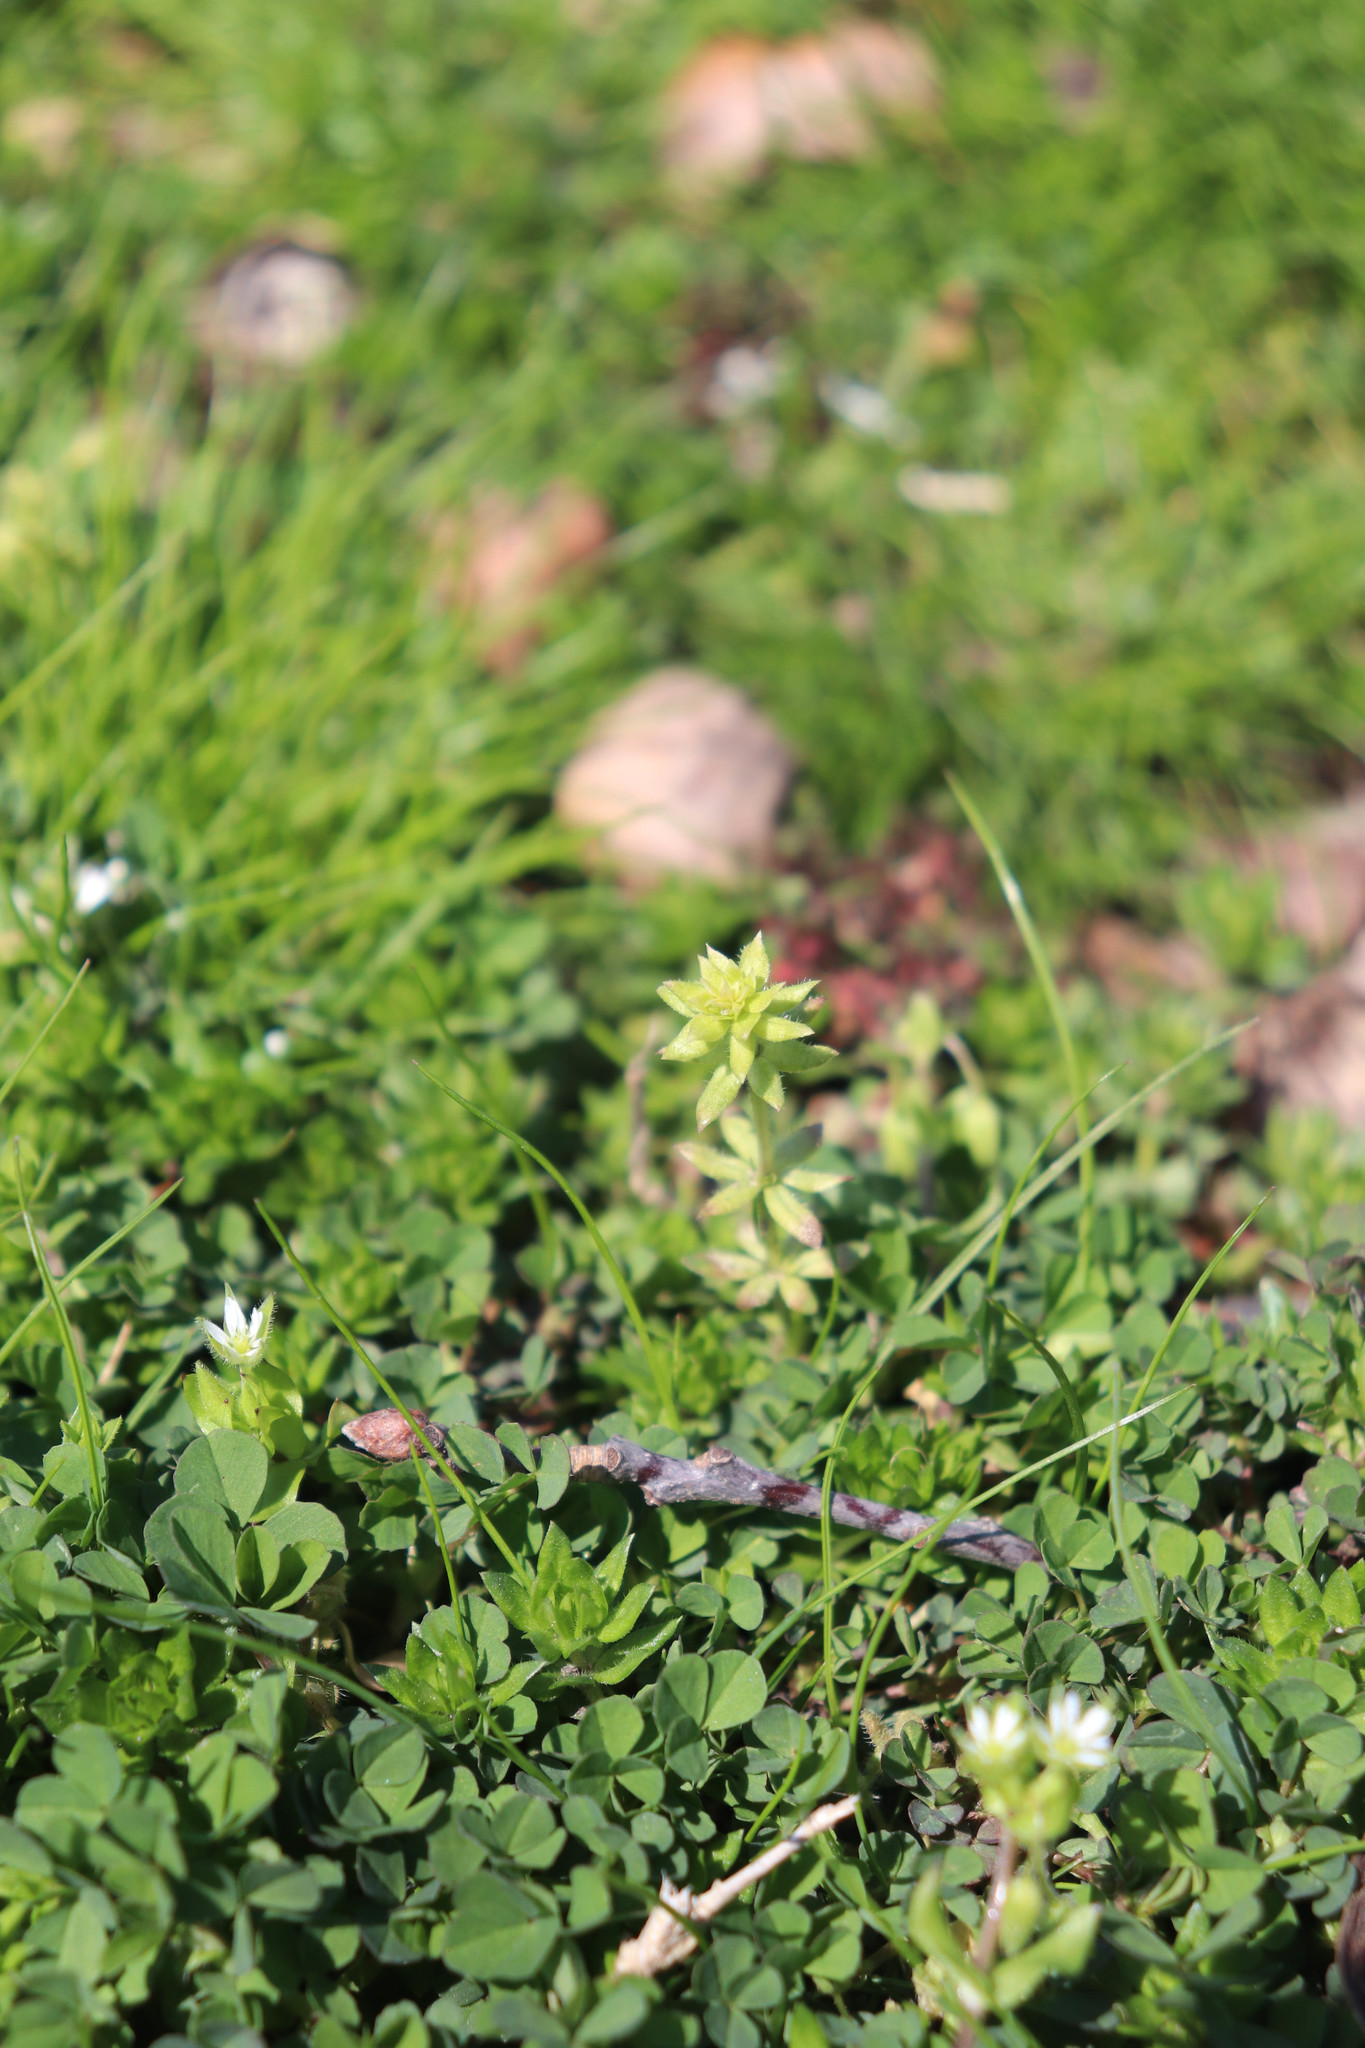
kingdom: Plantae
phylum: Tracheophyta
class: Magnoliopsida
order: Gentianales
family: Rubiaceae
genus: Sherardia
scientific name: Sherardia arvensis
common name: Field madder
